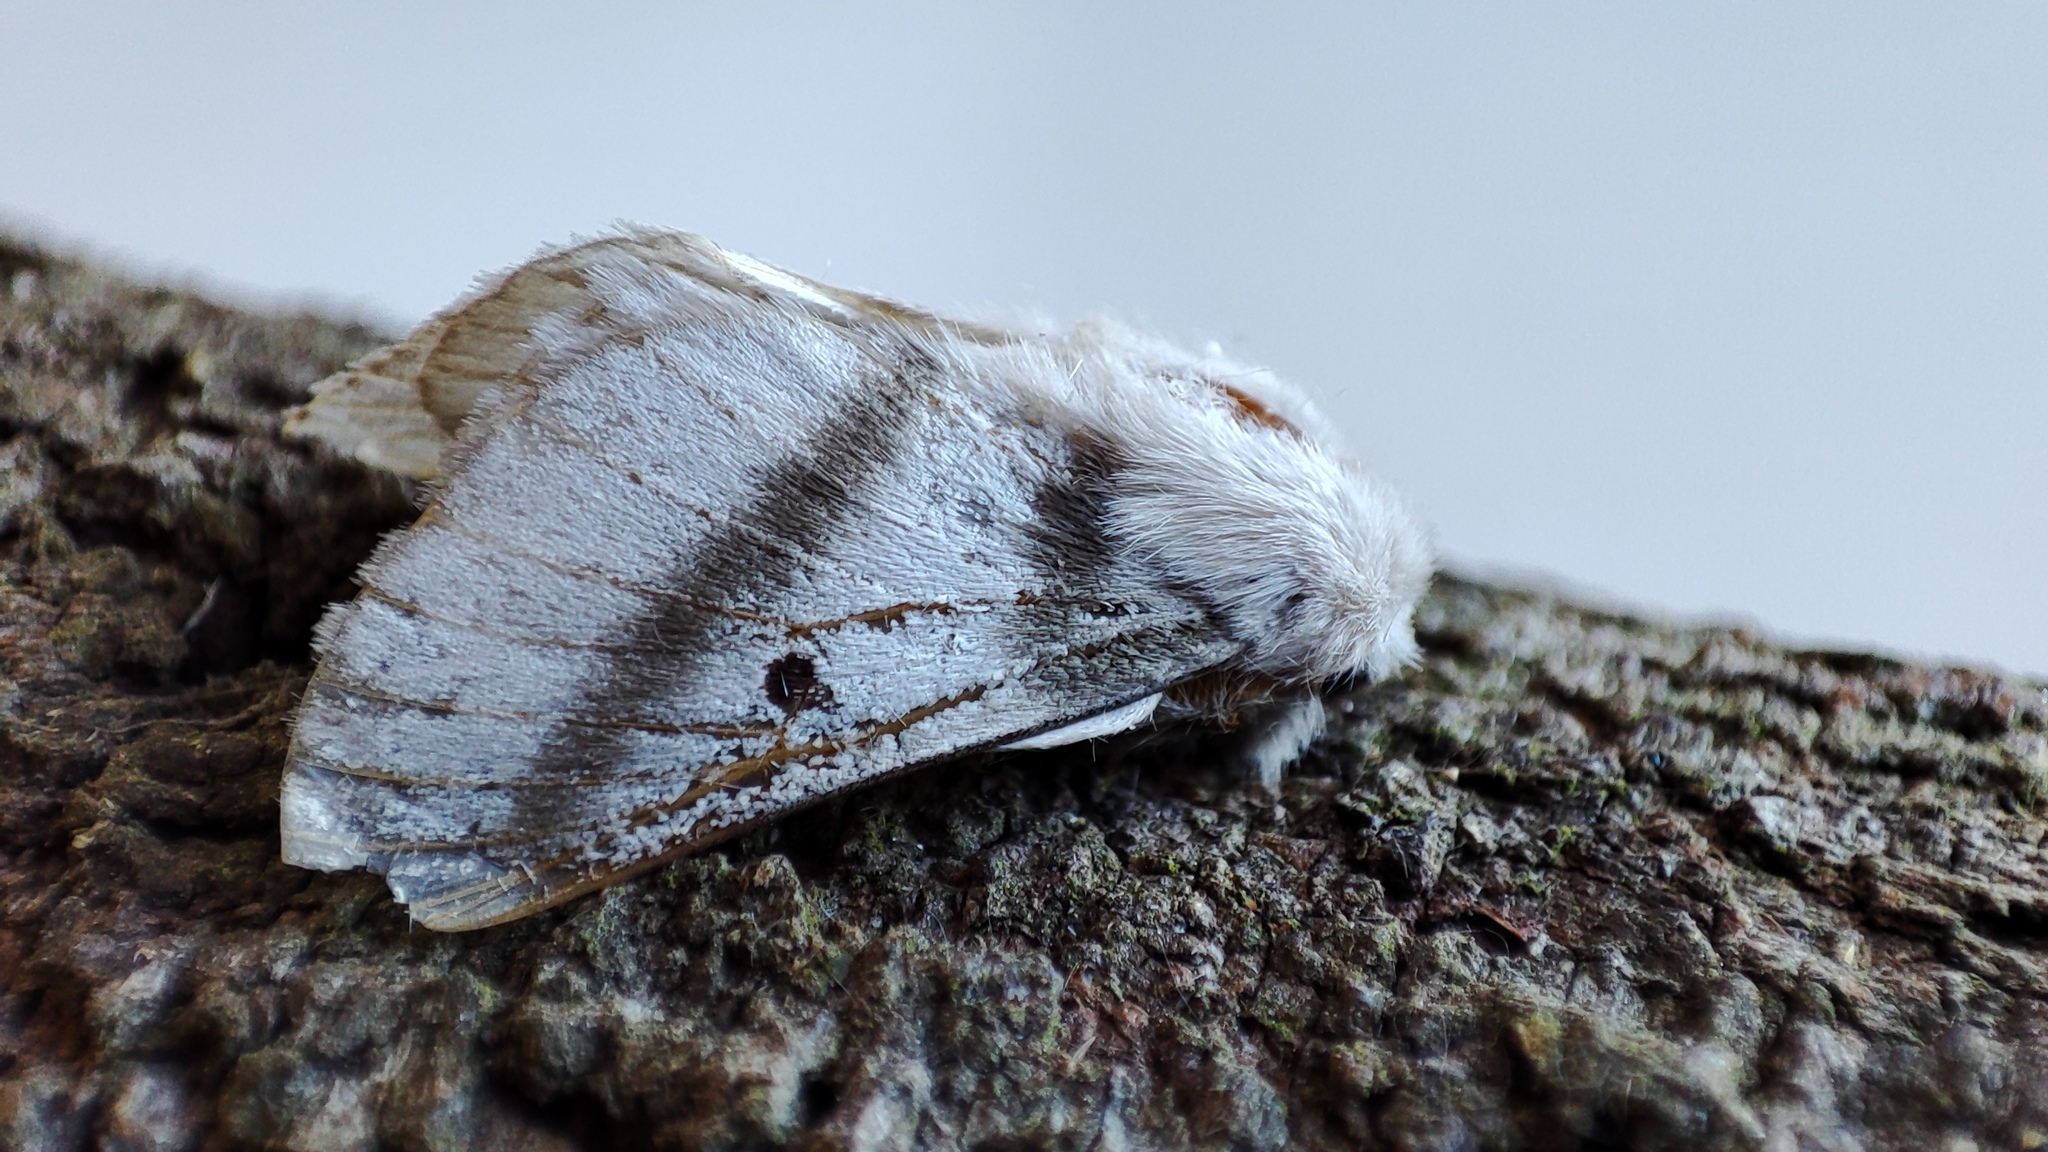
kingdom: Animalia
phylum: Arthropoda
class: Insecta
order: Lepidoptera
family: Lasiocampidae
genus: Bombycomorpha
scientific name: Bombycomorpha bifascia
